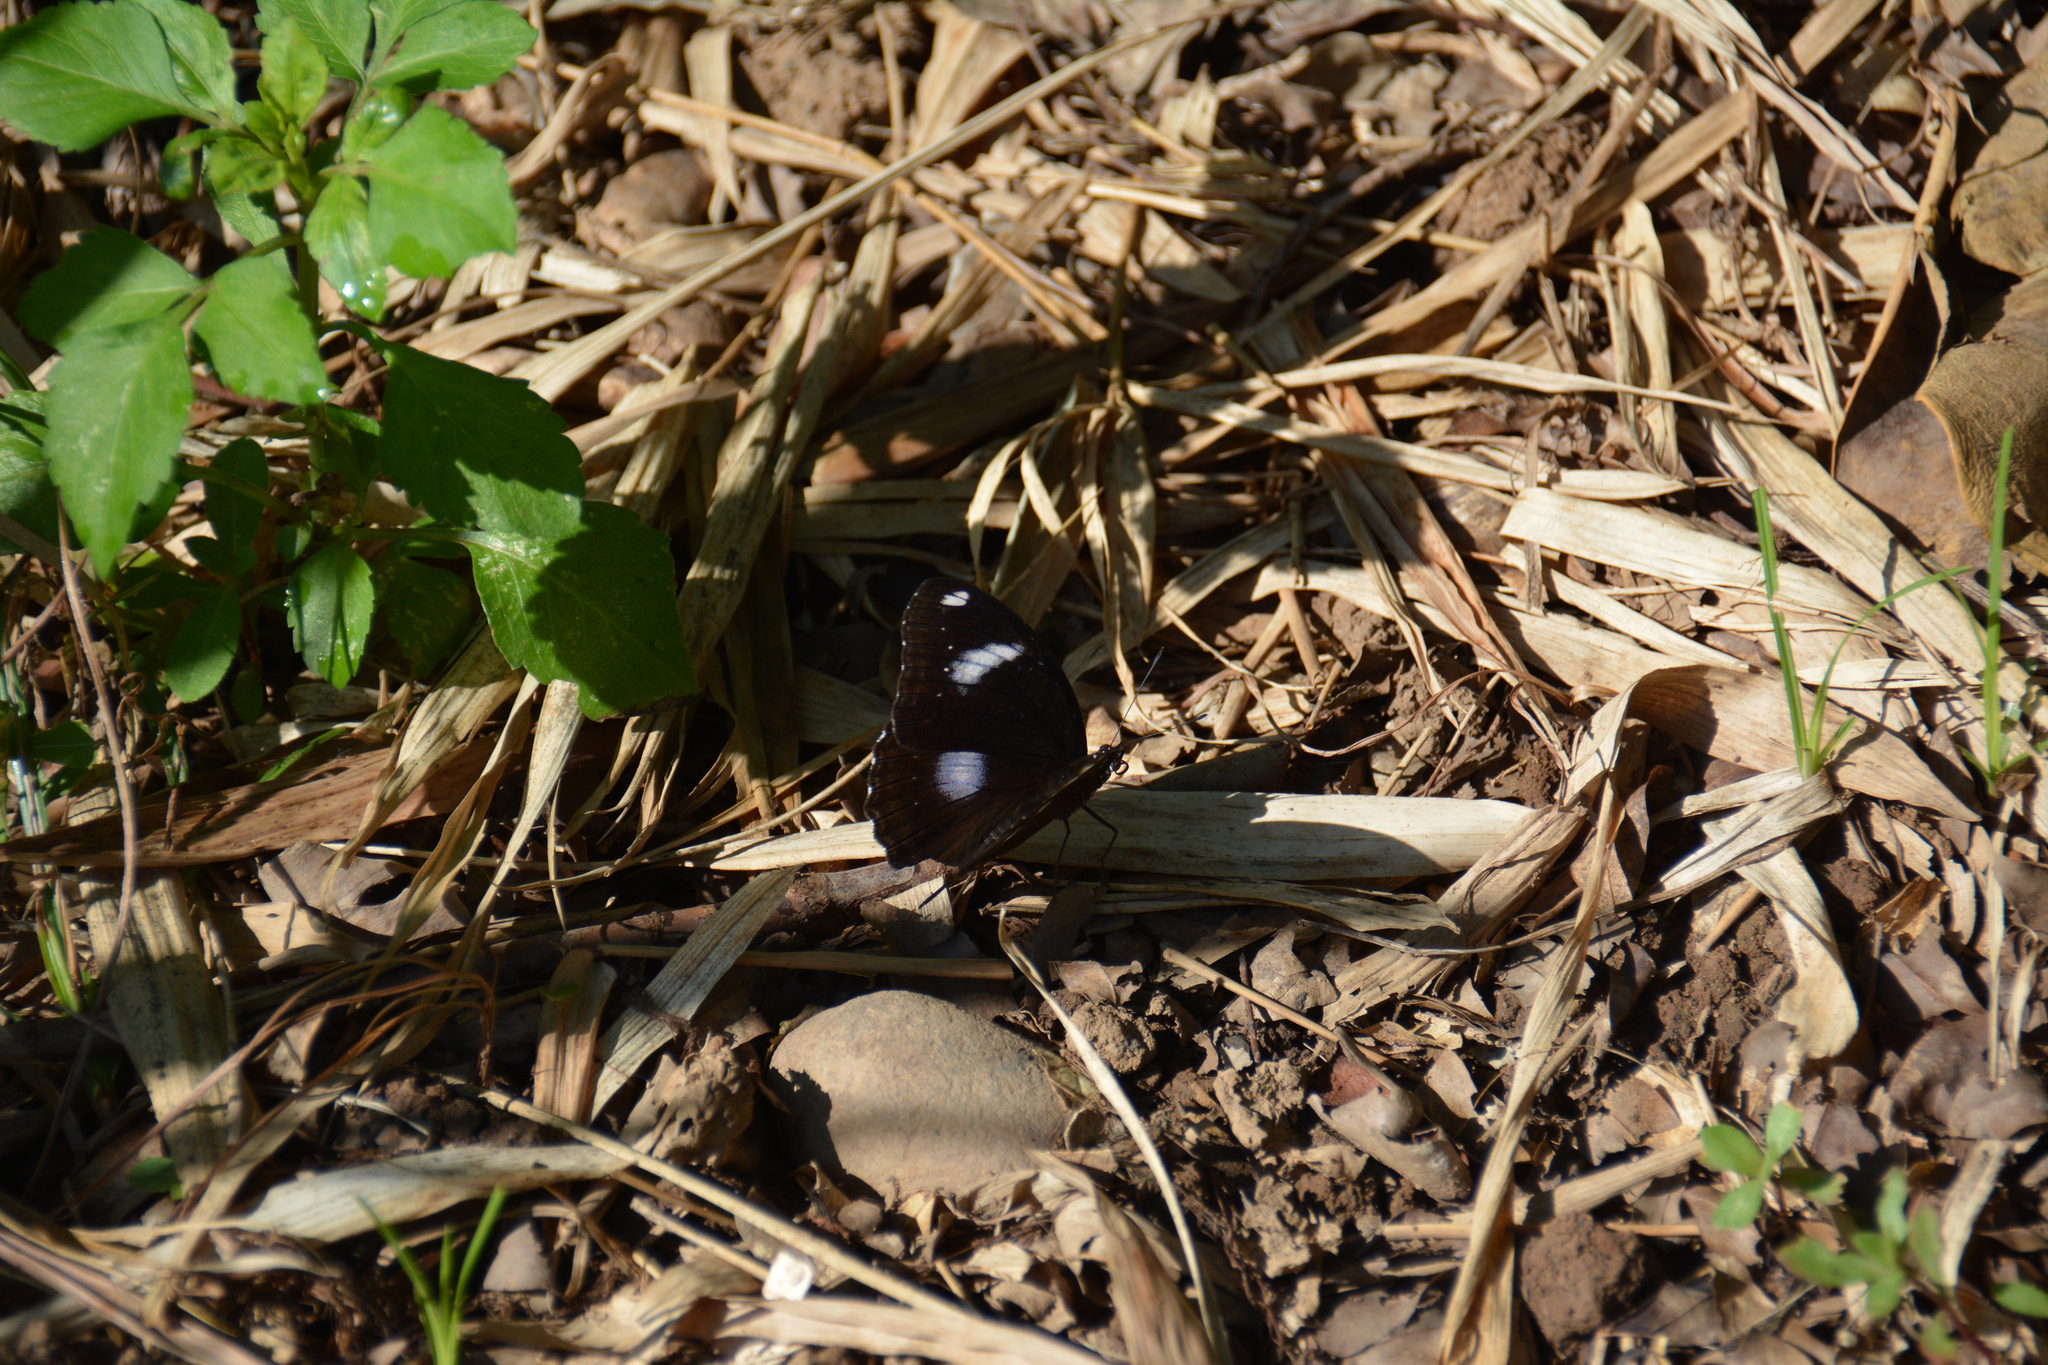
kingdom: Animalia
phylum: Arthropoda
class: Insecta
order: Lepidoptera
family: Nymphalidae
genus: Hypolimnas
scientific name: Hypolimnas bolina
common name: Great eggfly
